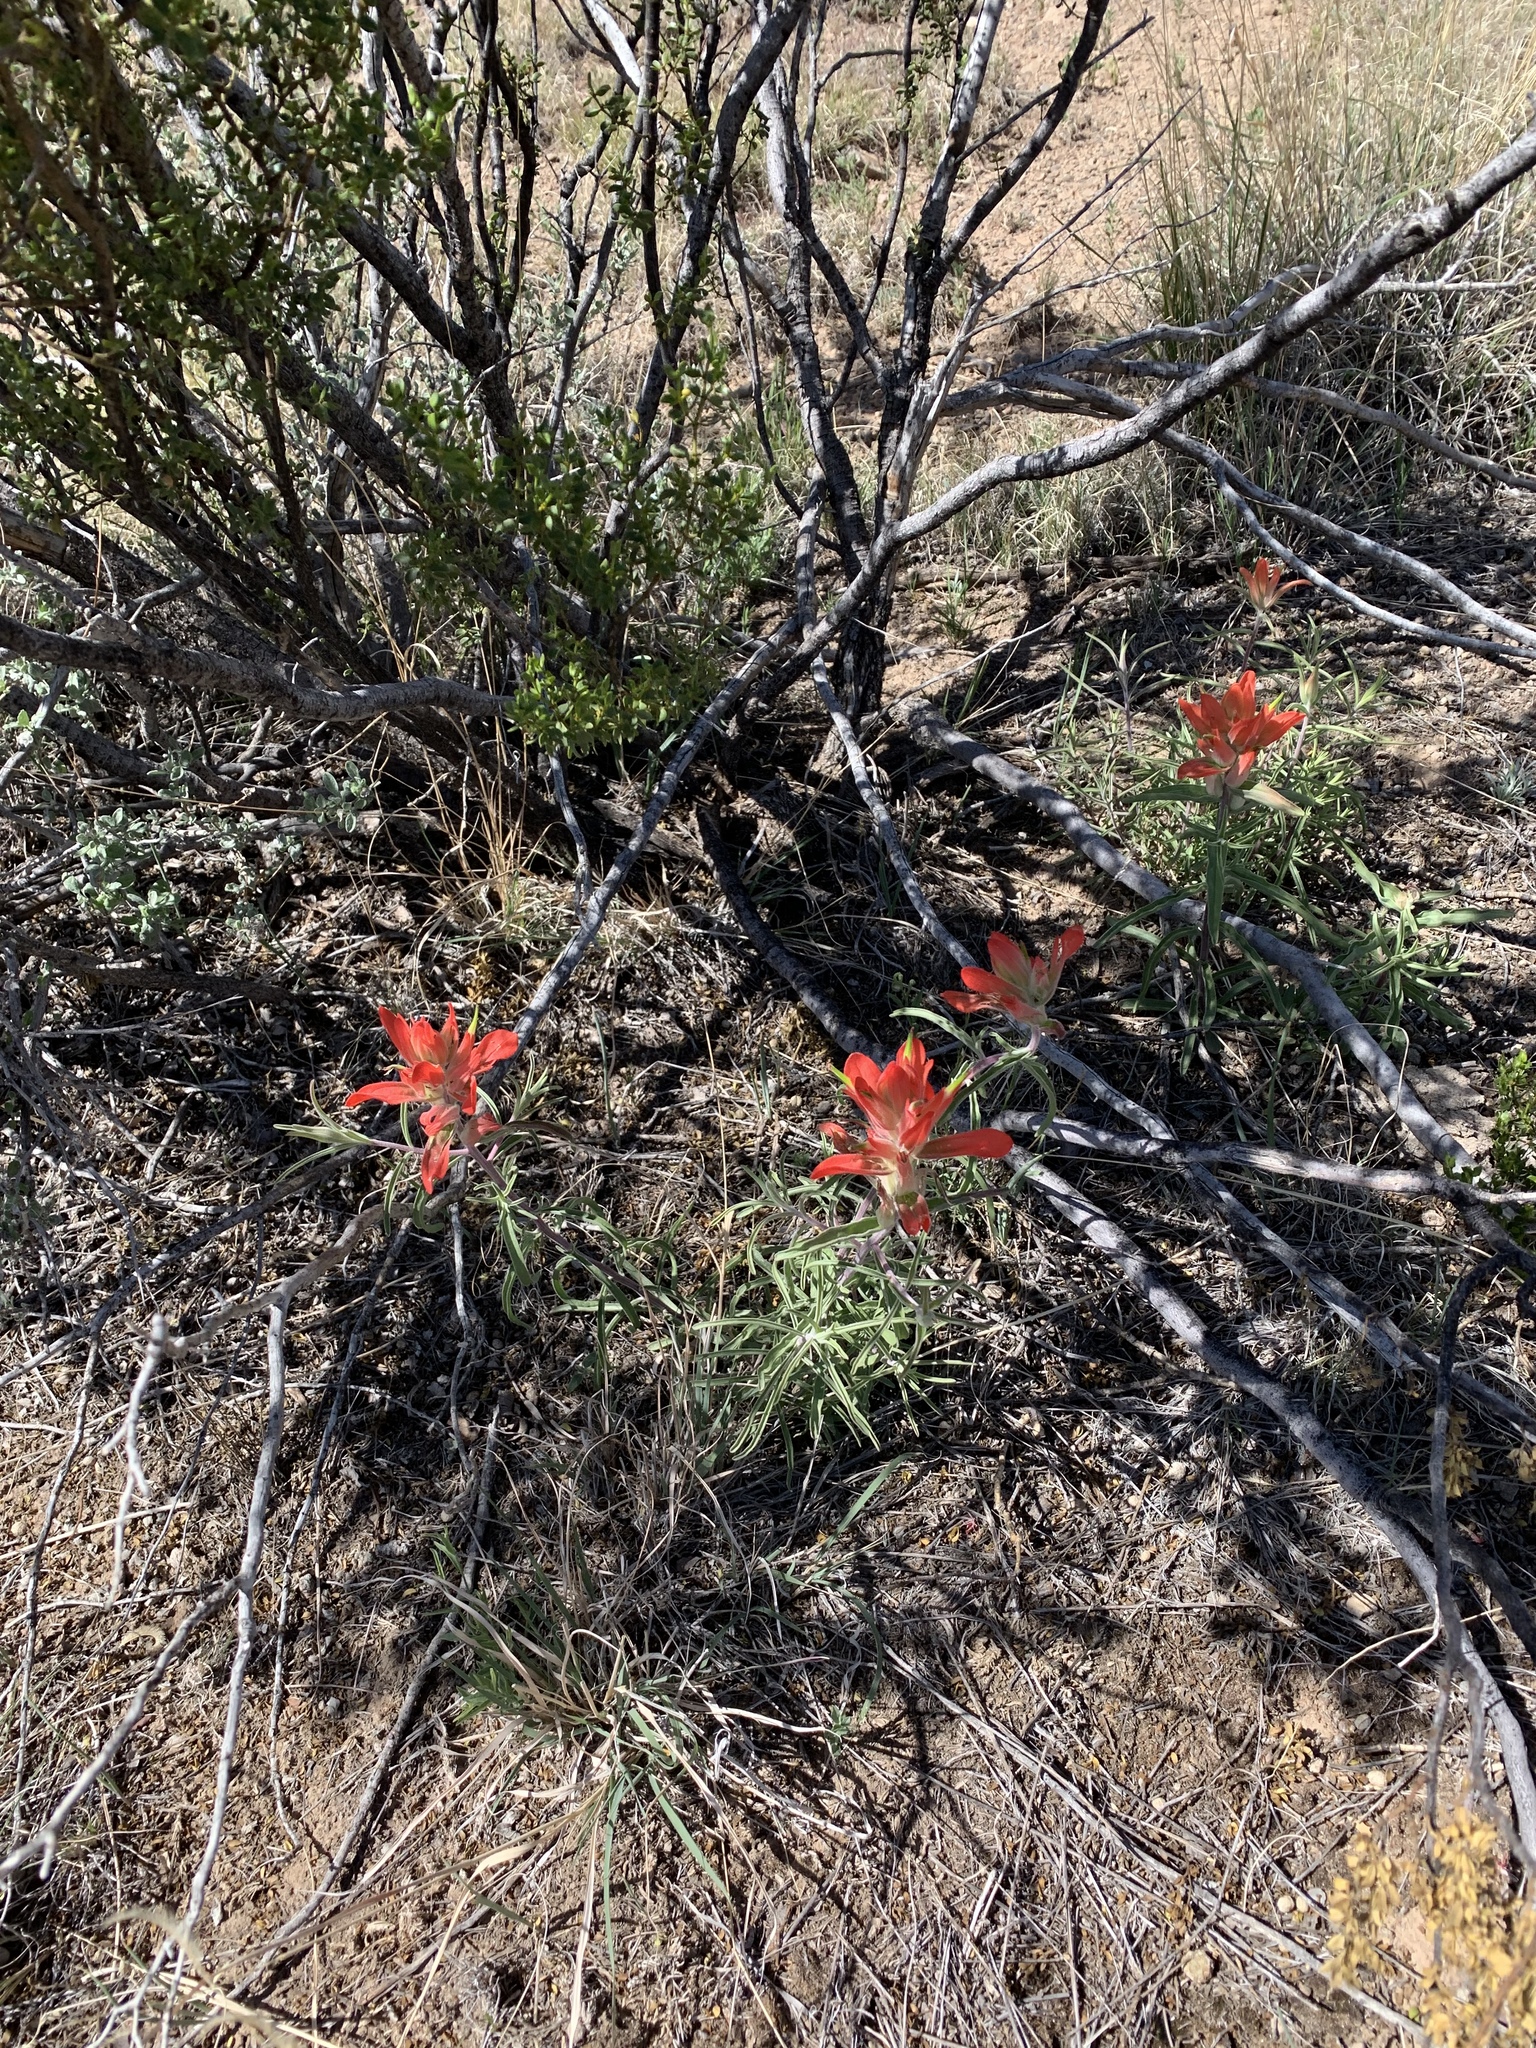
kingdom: Plantae
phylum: Tracheophyta
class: Magnoliopsida
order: Lamiales
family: Orobanchaceae
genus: Castilleja
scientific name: Castilleja integra
